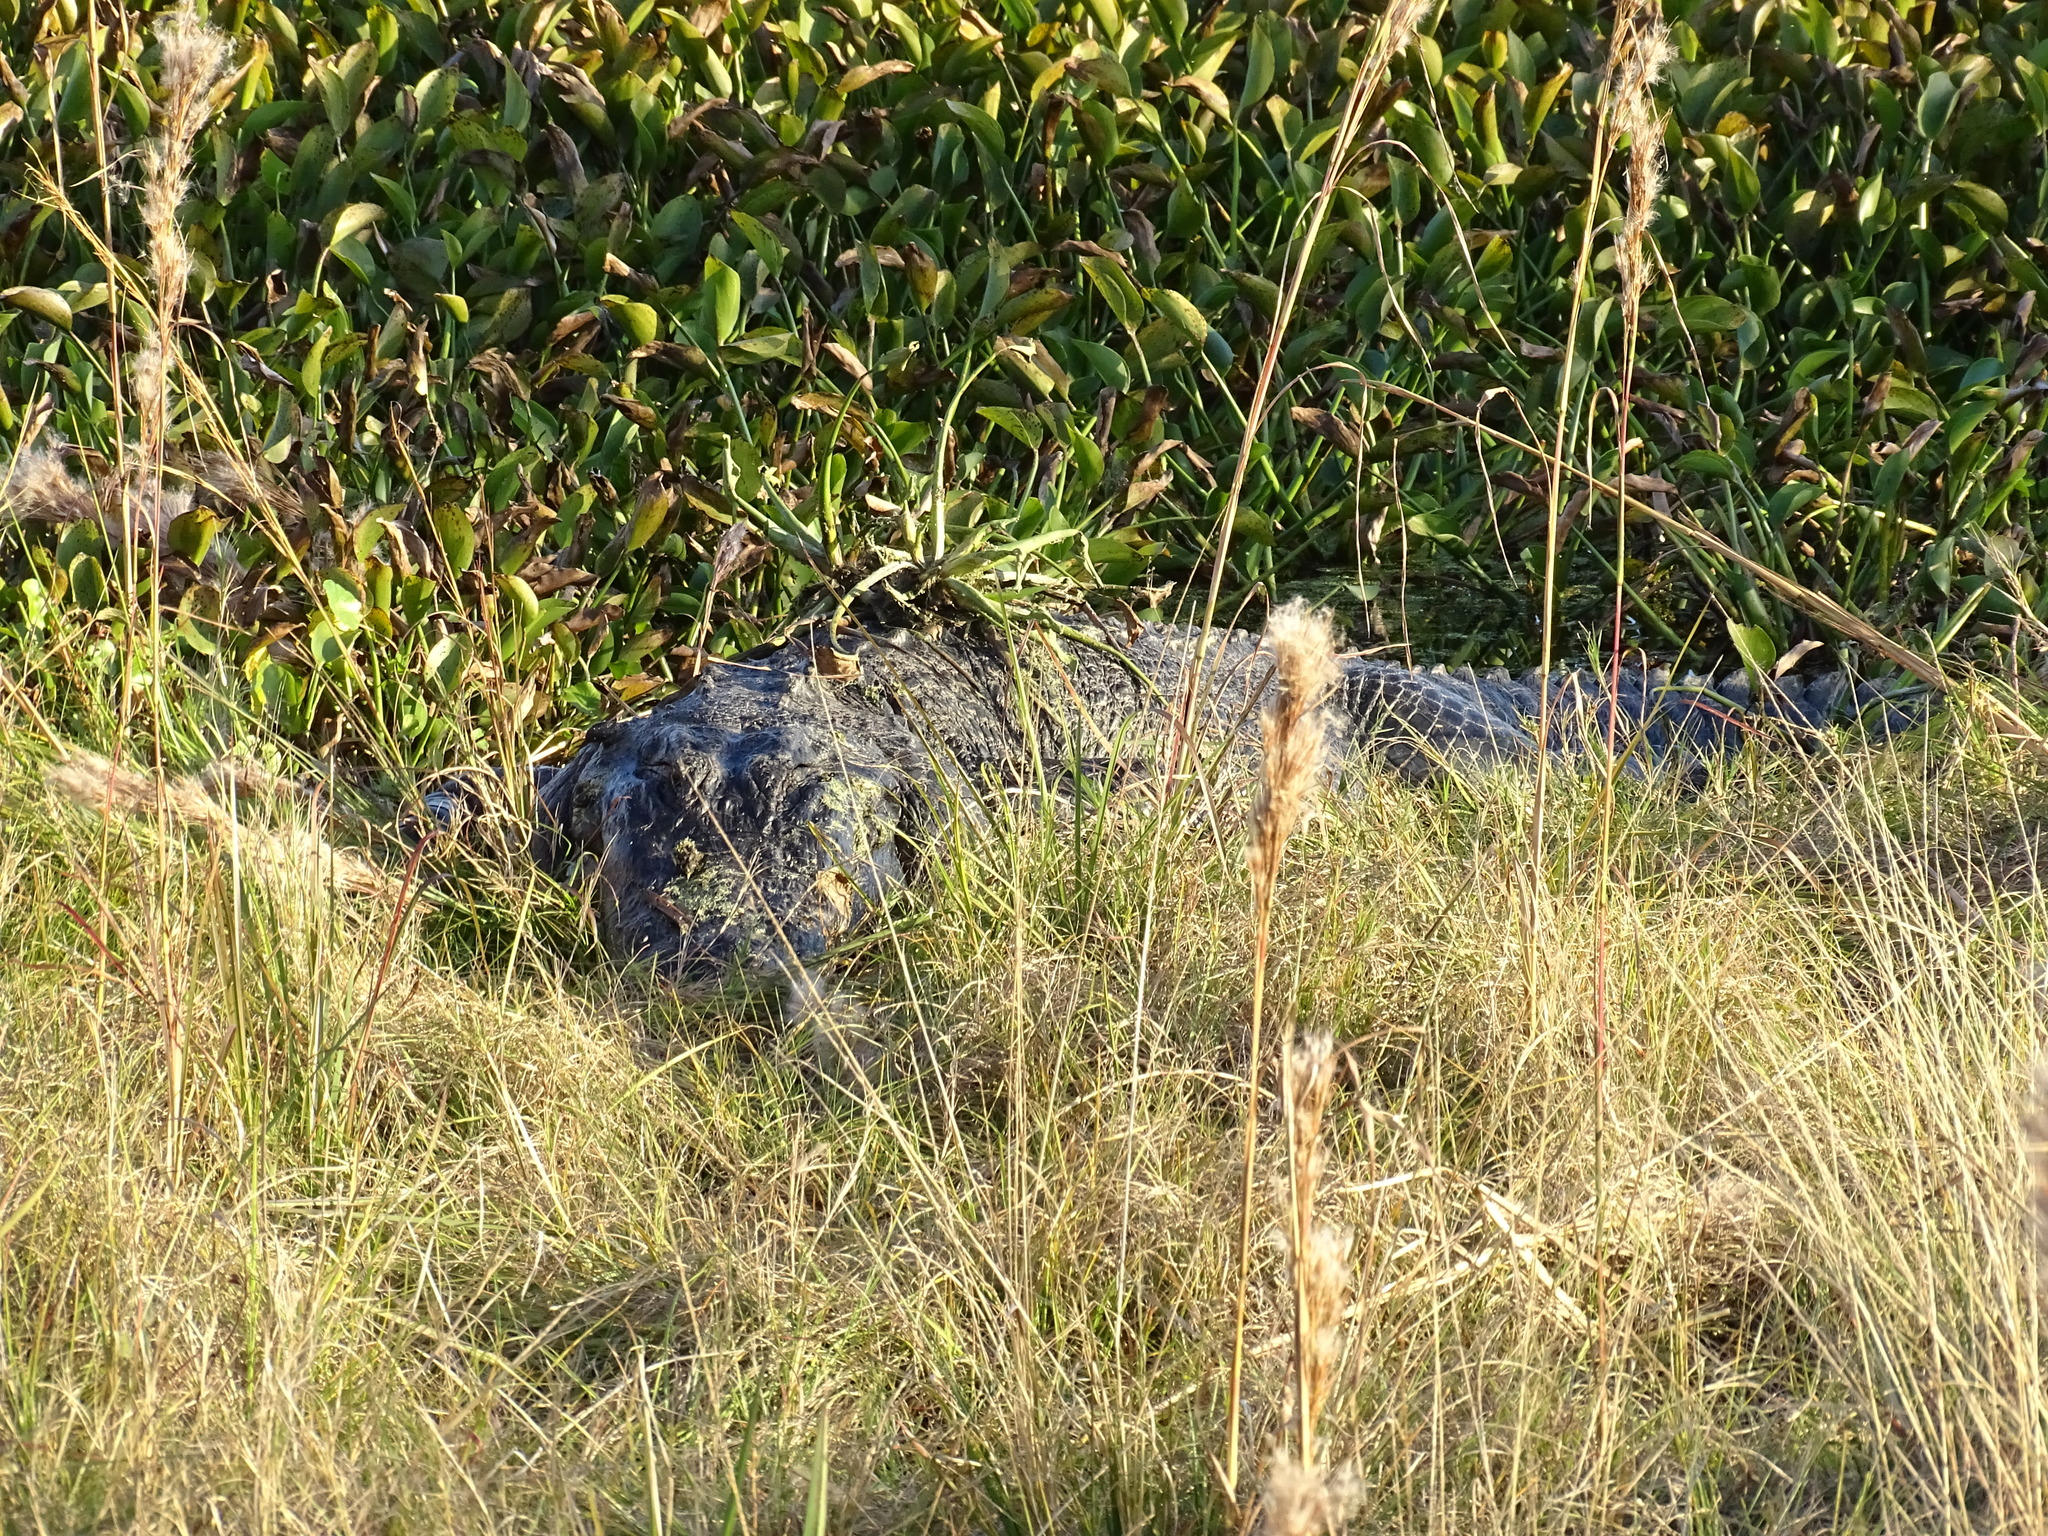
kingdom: Animalia
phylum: Chordata
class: Crocodylia
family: Alligatoridae
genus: Alligator
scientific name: Alligator mississippiensis
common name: American alligator
